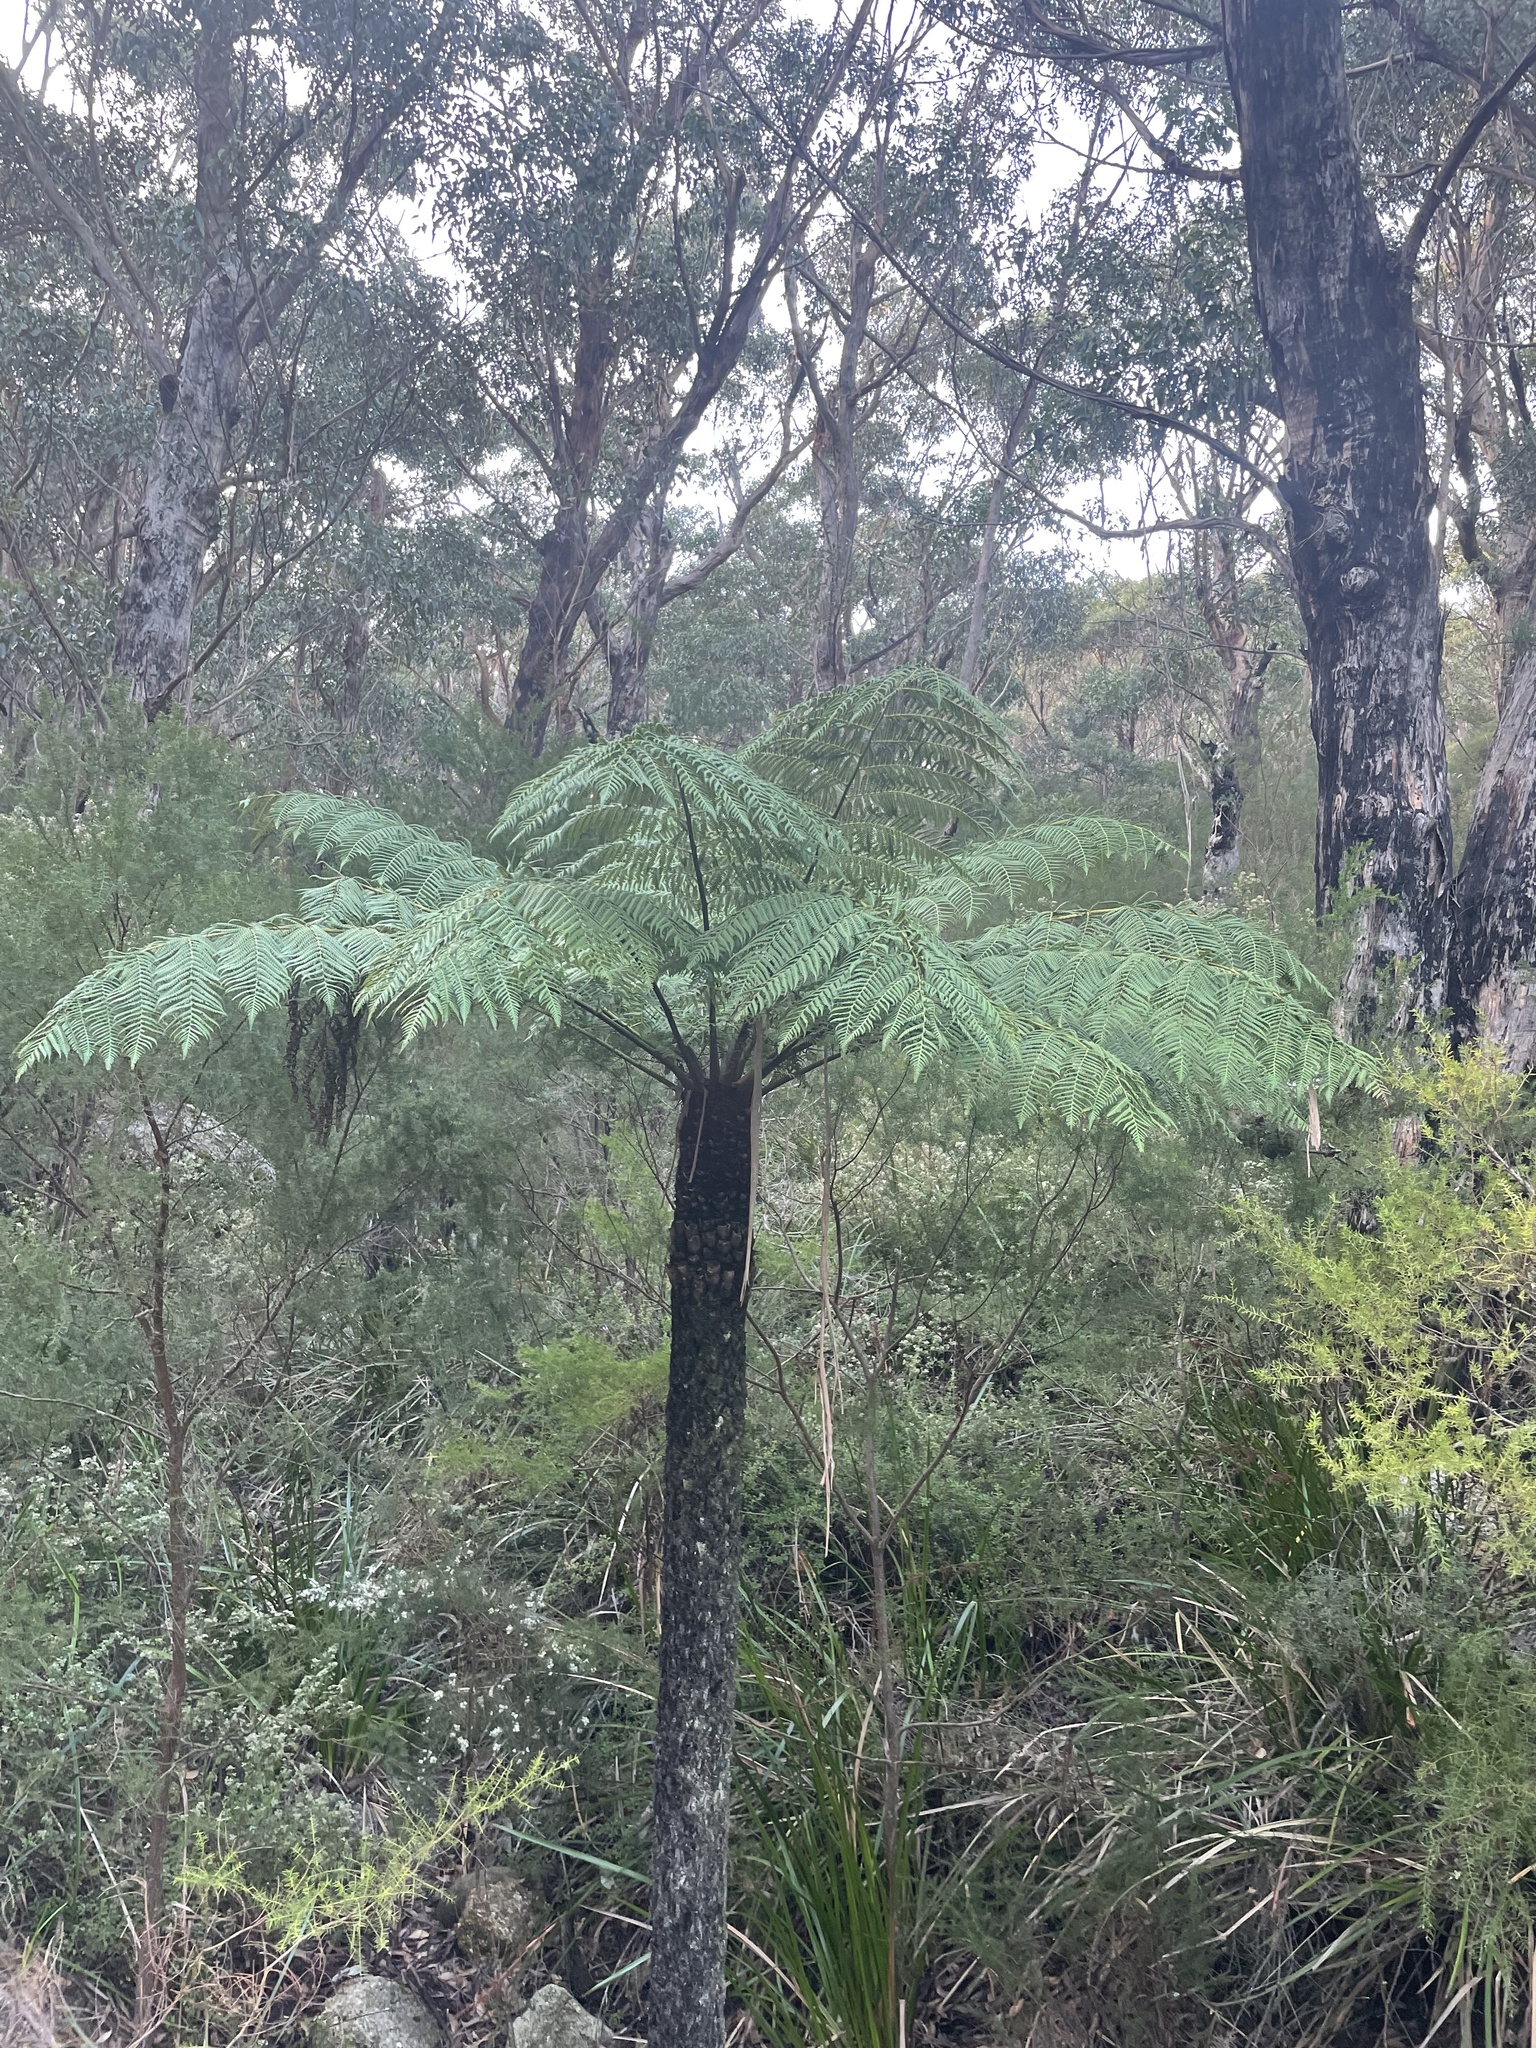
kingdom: Plantae
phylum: Tracheophyta
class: Polypodiopsida
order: Cyatheales
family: Cyatheaceae
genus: Alsophila
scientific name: Alsophila australis
